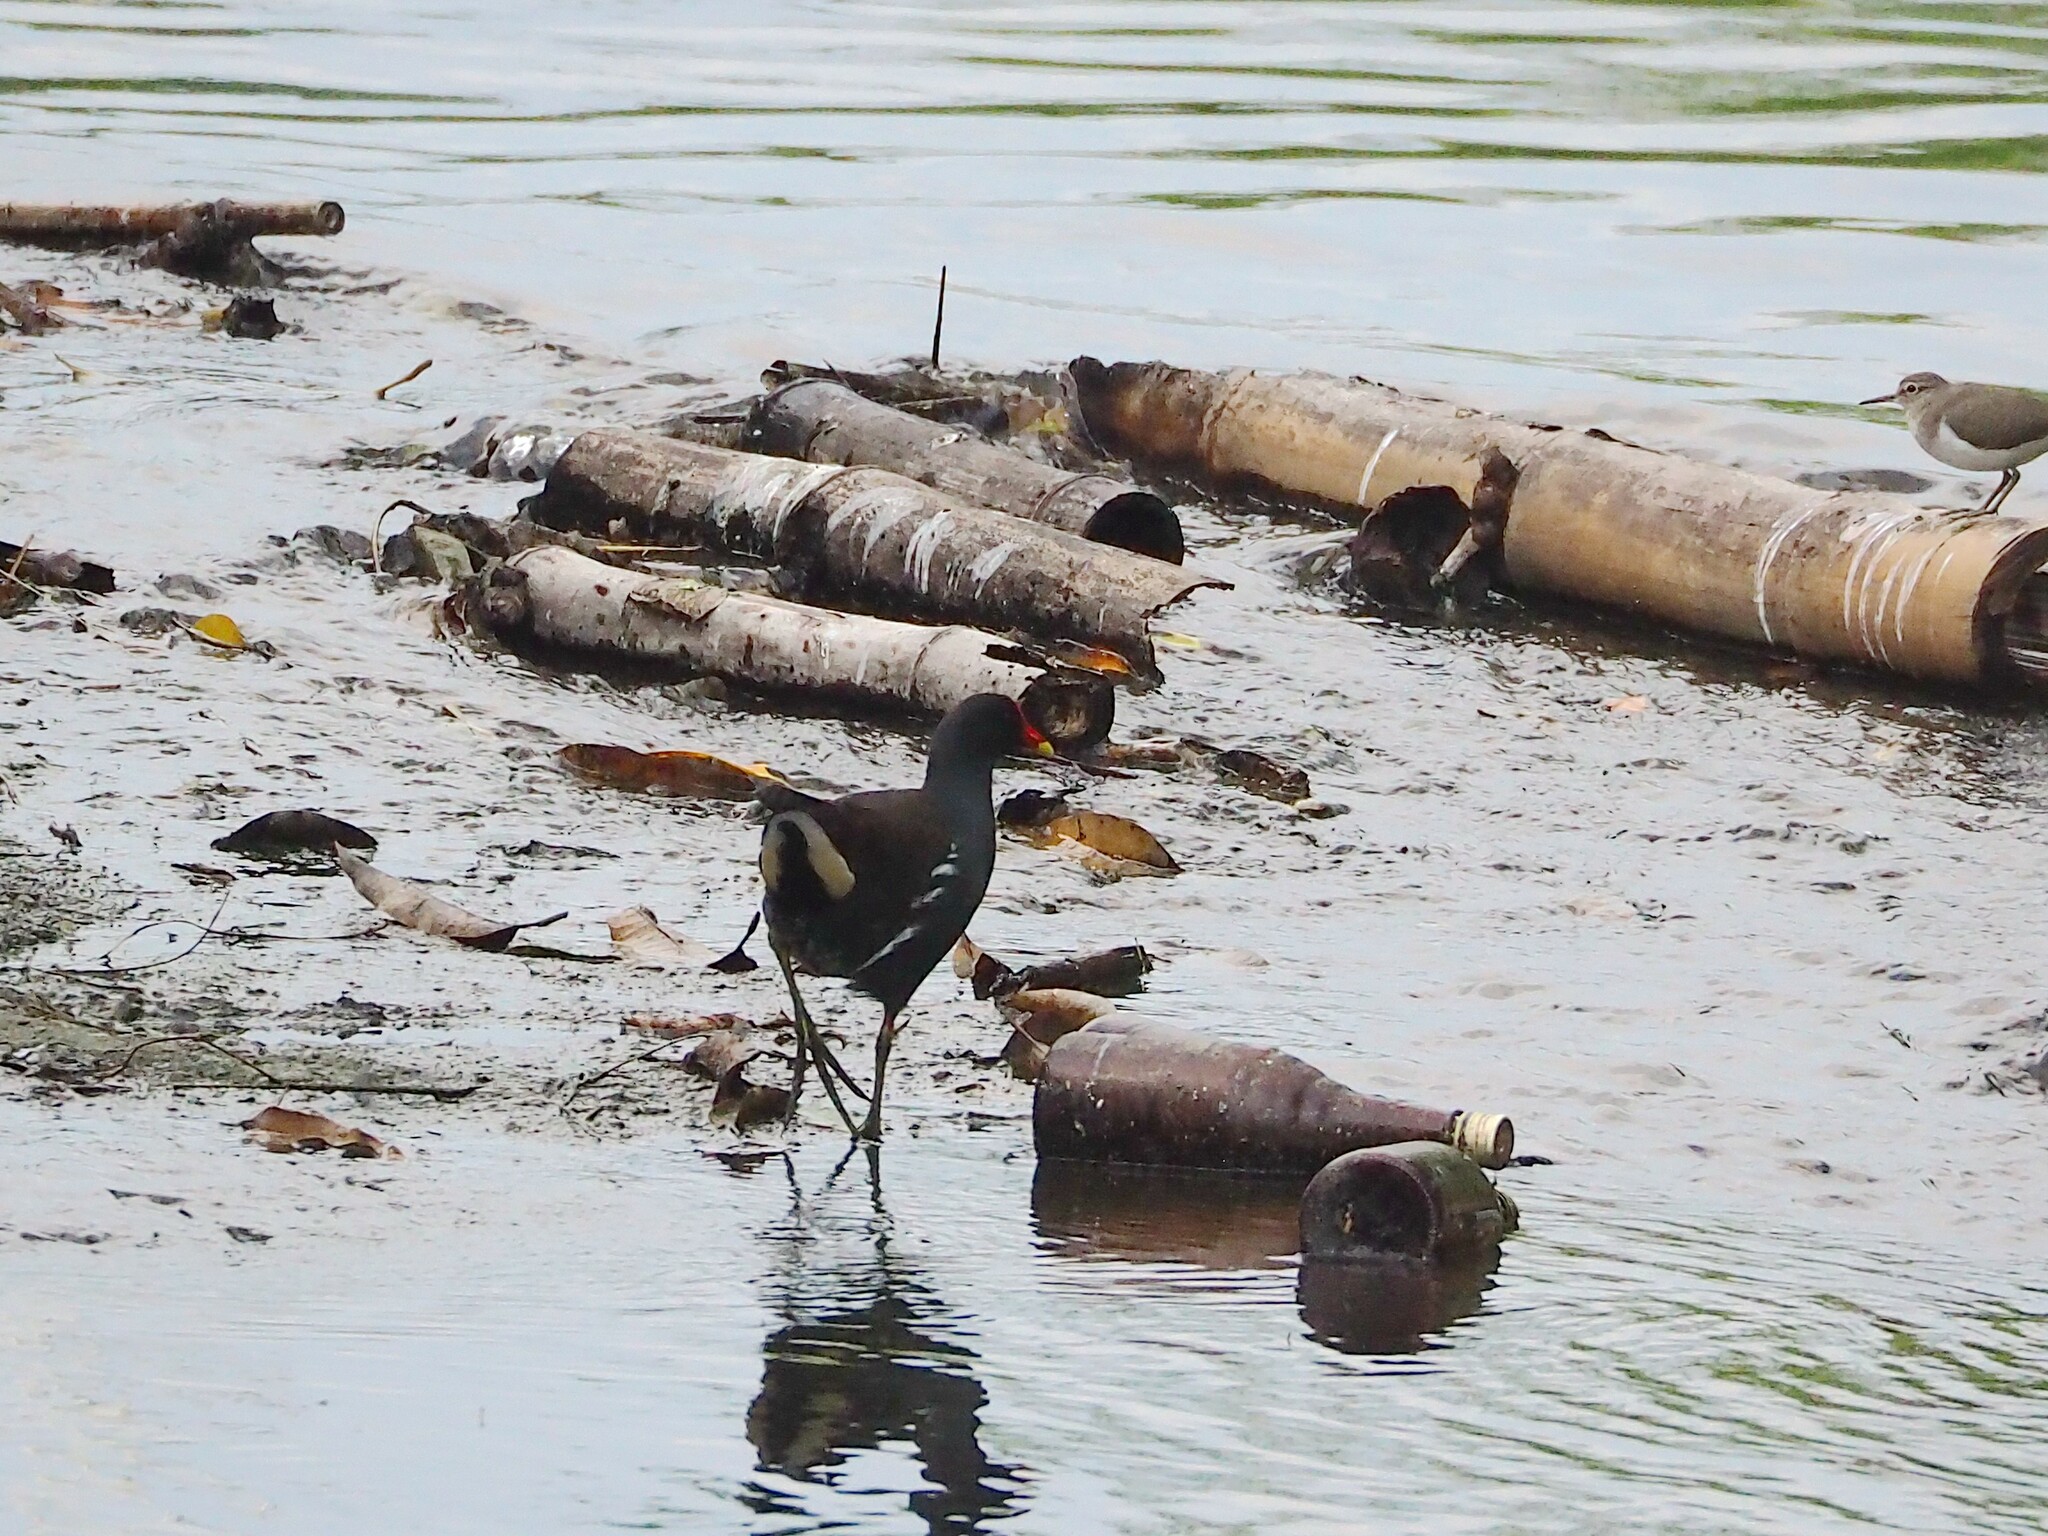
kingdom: Animalia
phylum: Chordata
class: Aves
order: Gruiformes
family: Rallidae
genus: Gallinula
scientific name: Gallinula chloropus
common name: Common moorhen
